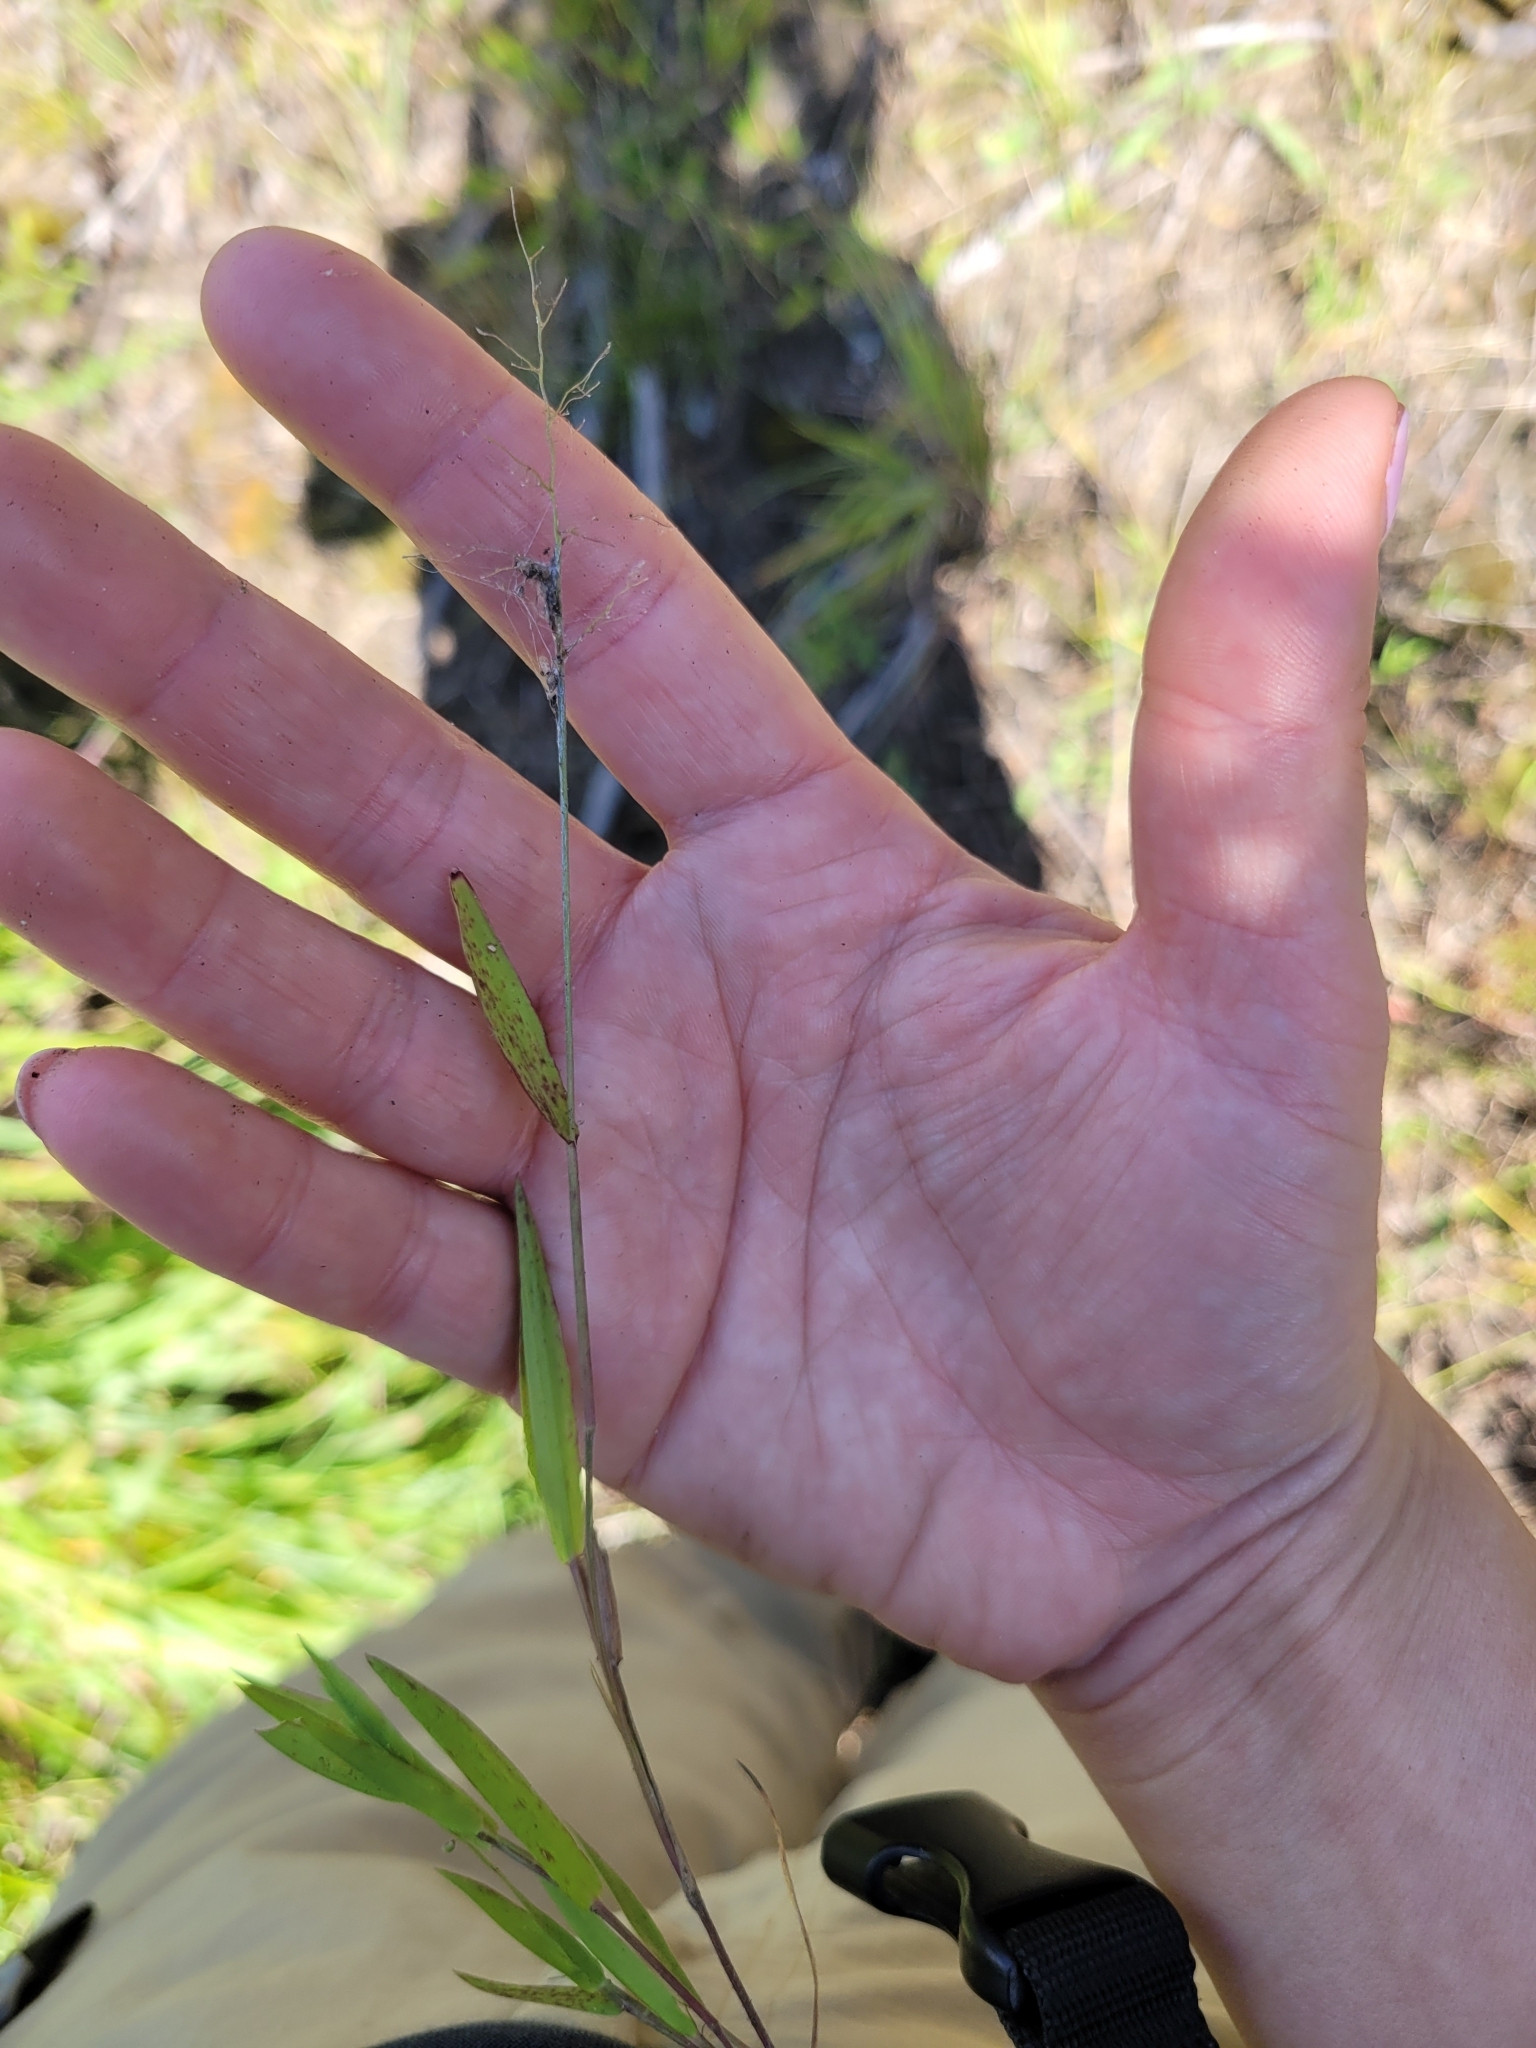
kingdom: Plantae
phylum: Tracheophyta
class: Liliopsida
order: Poales
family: Poaceae
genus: Dichanthelium
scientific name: Dichanthelium acuminatum
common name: Hairy panic grass
